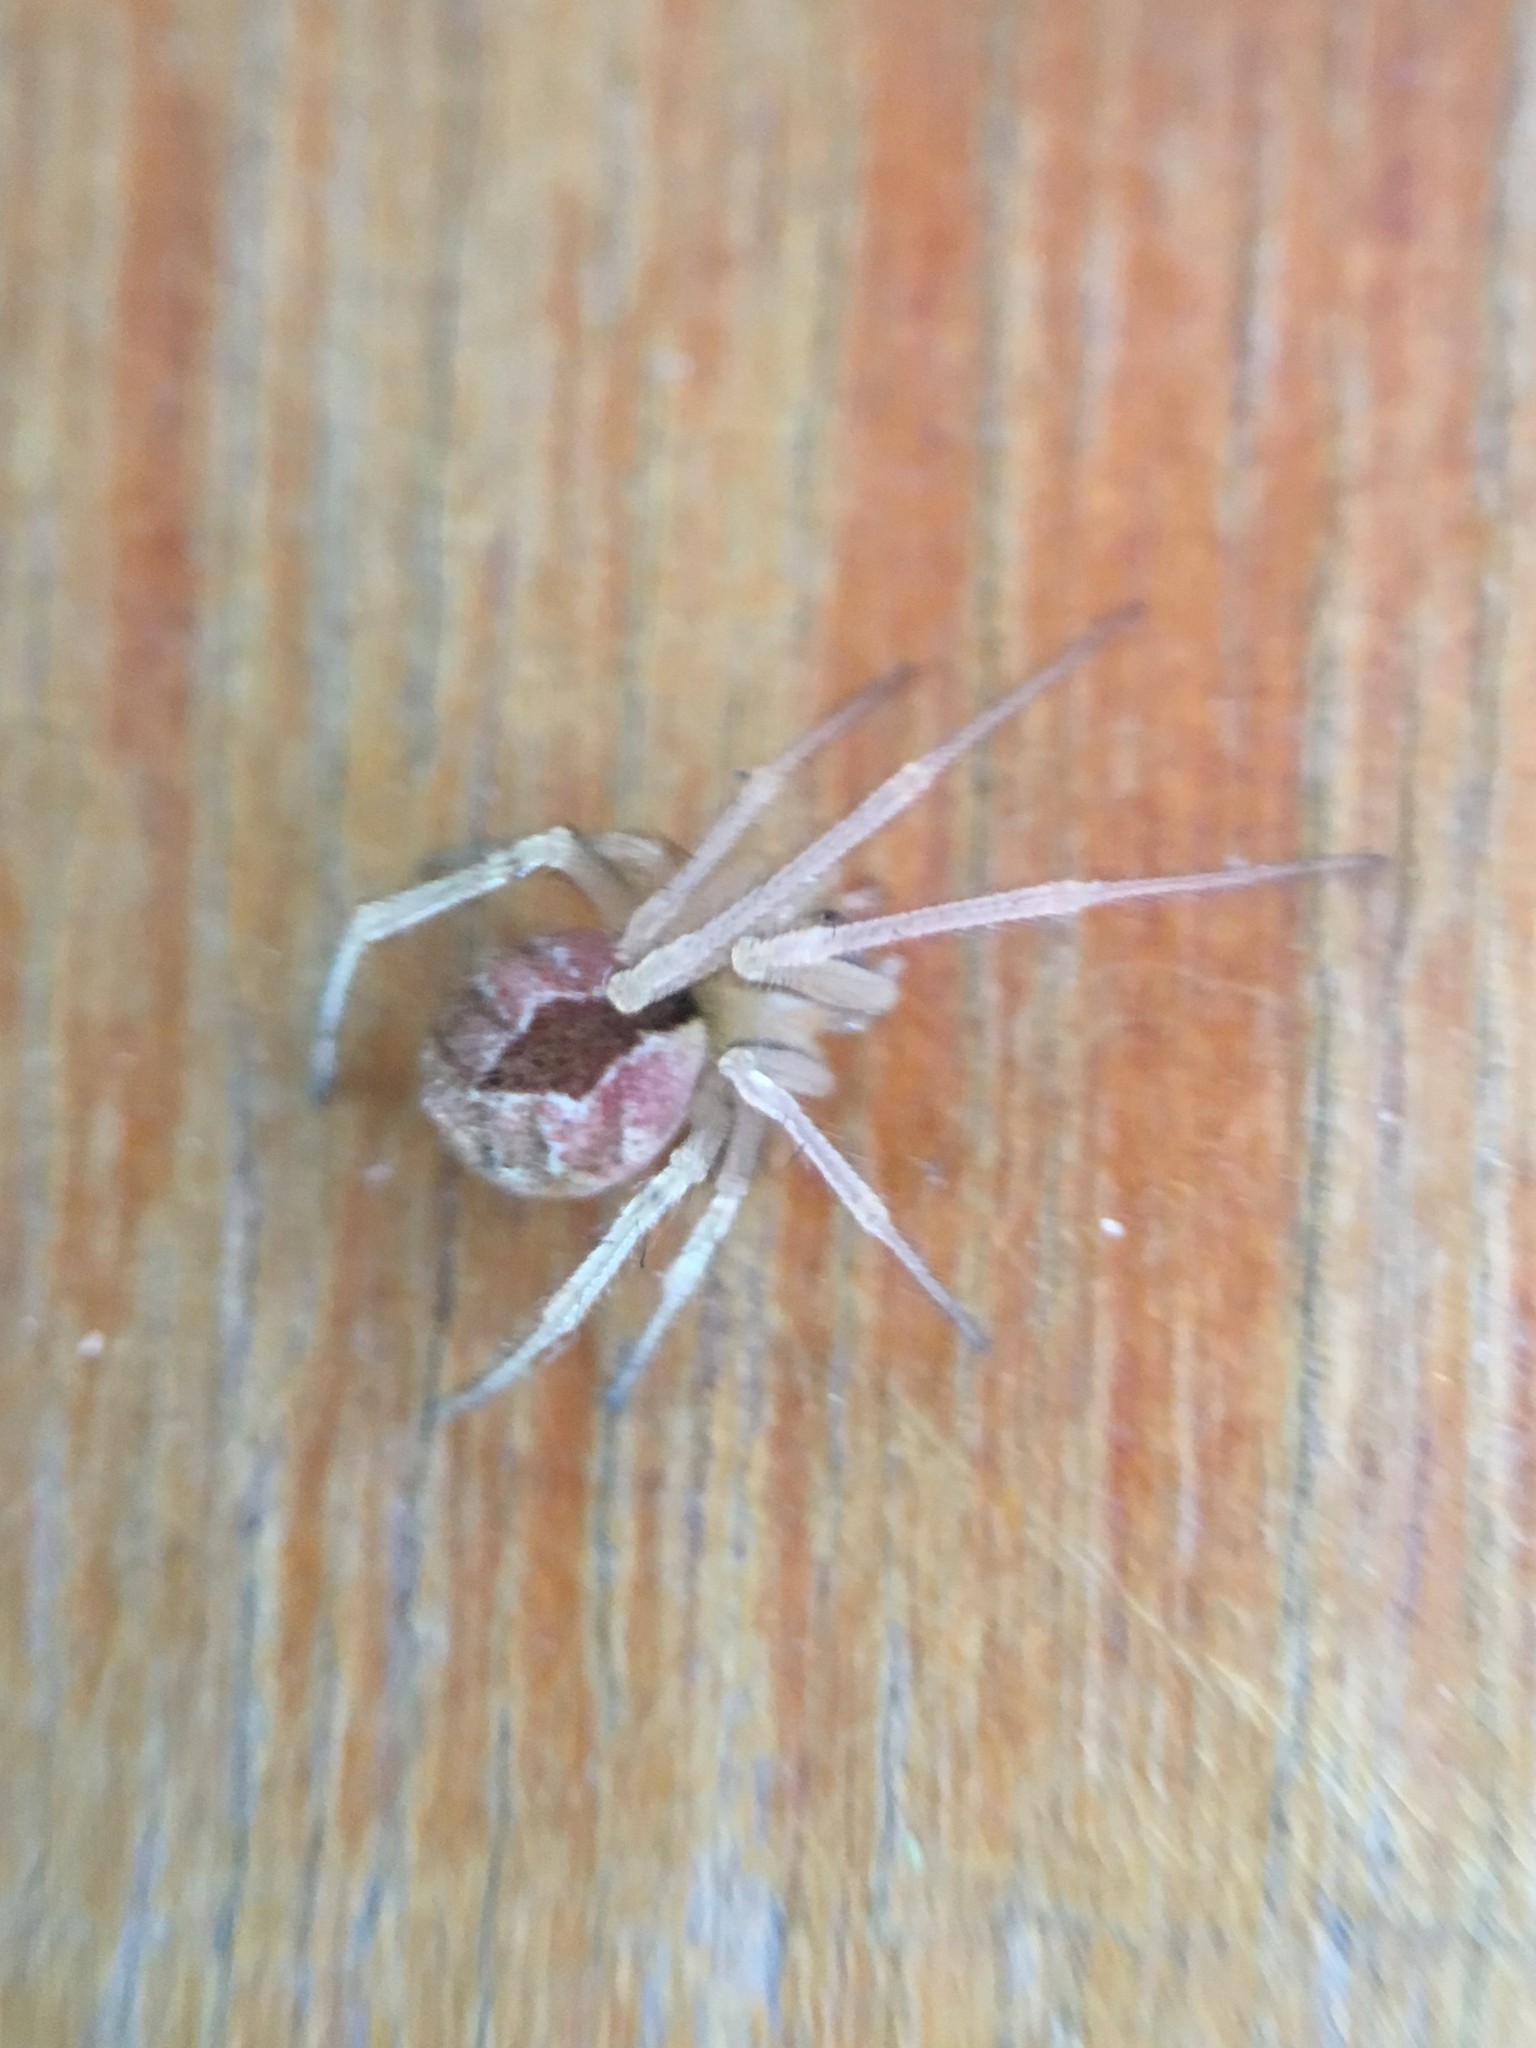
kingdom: Animalia
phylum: Arthropoda
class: Arachnida
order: Araneae
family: Theridiidae
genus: Cryptachaea
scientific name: Cryptachaea veruculata
